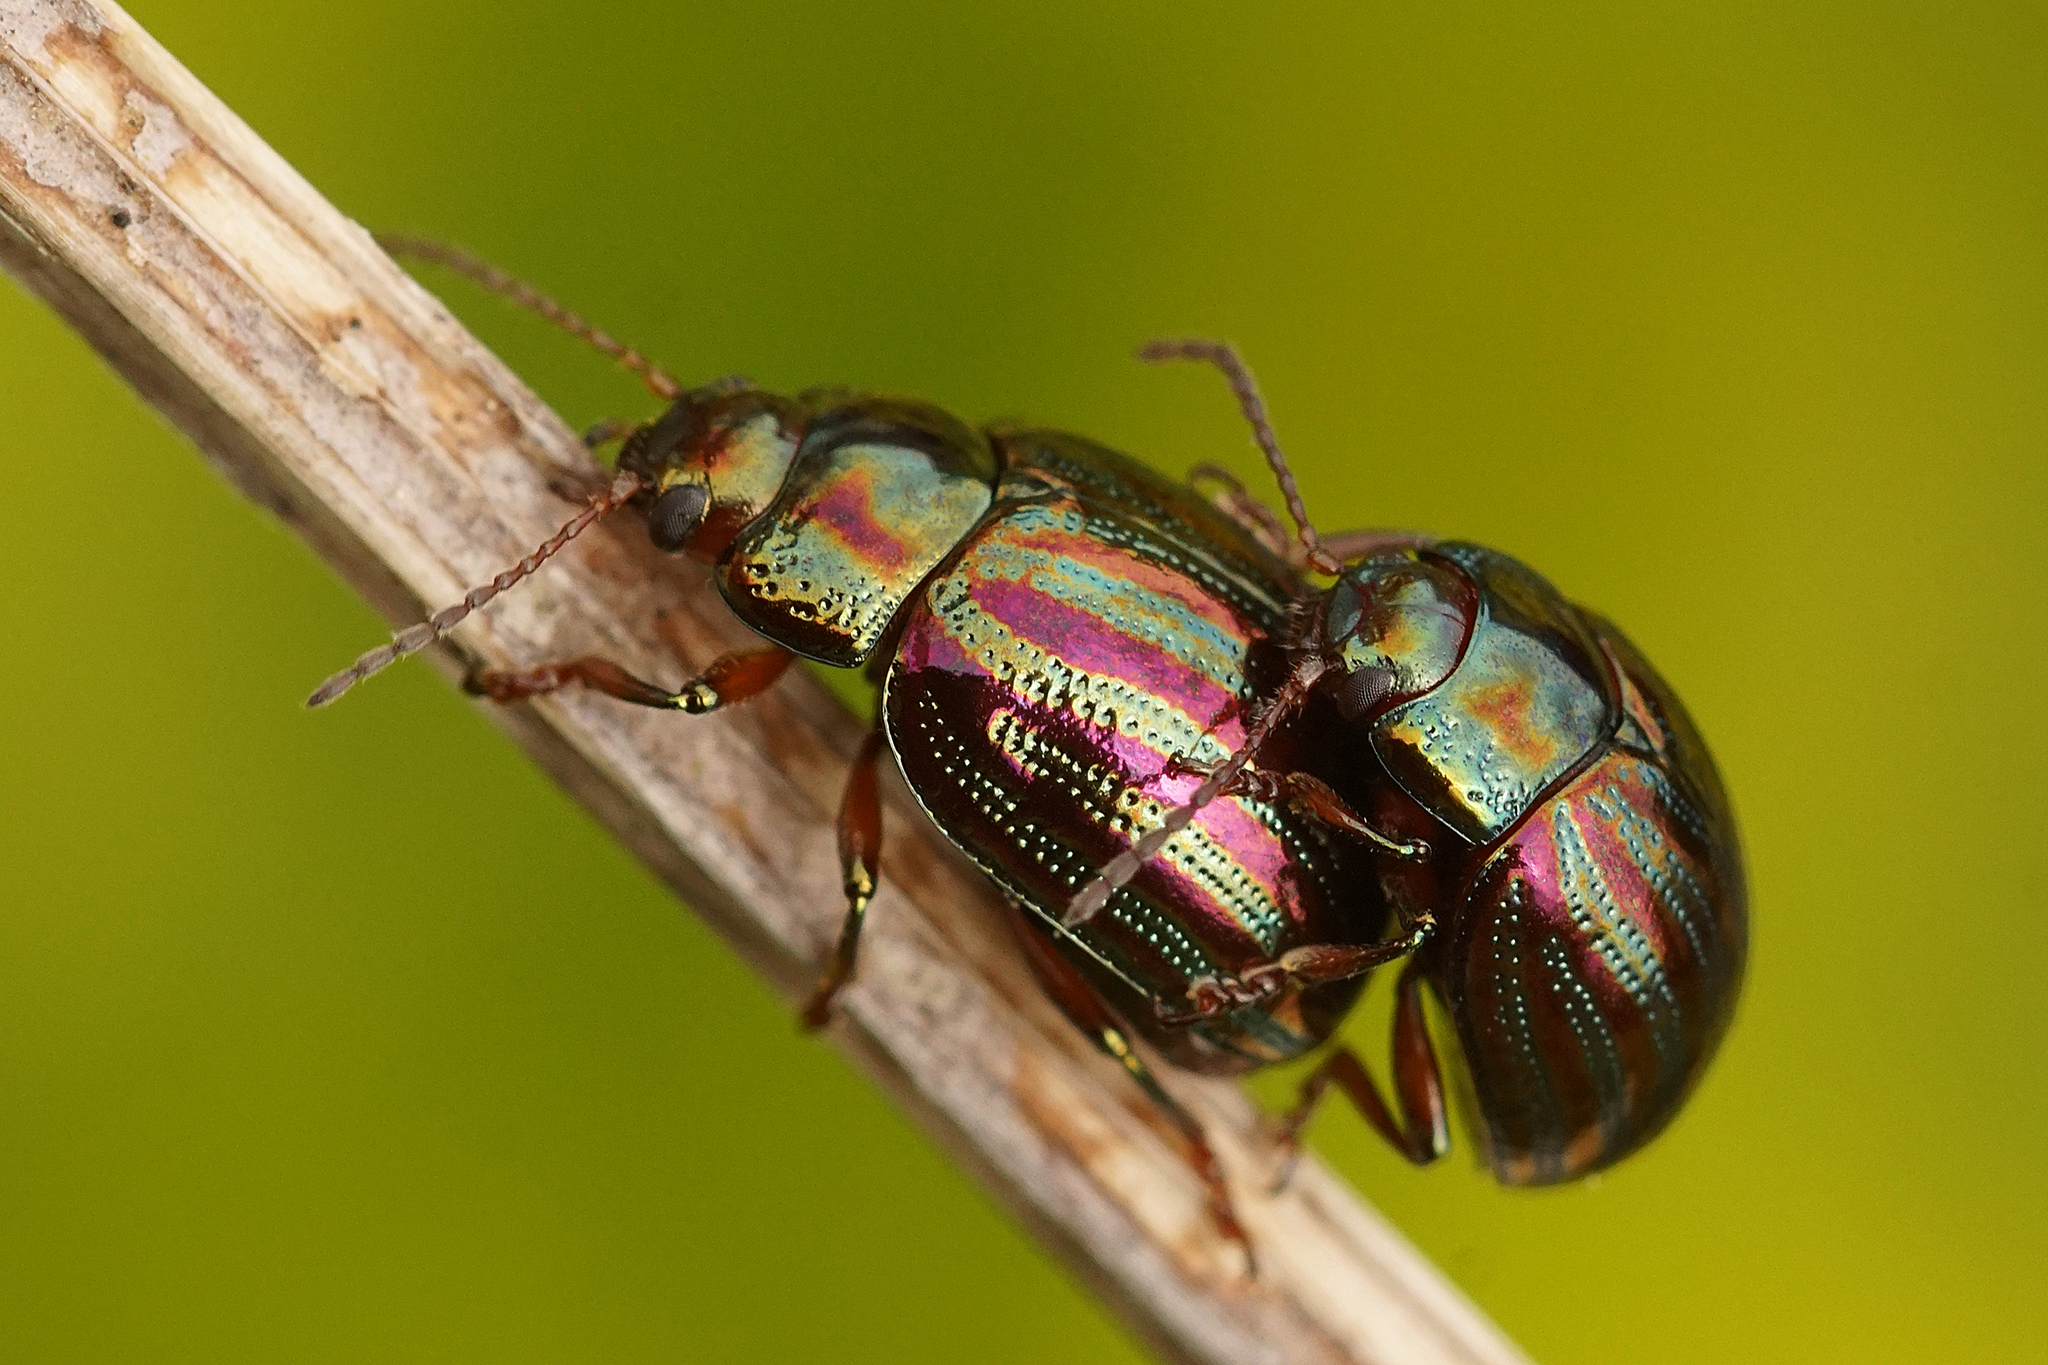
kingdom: Animalia
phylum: Arthropoda
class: Insecta
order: Coleoptera
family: Chrysomelidae
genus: Chrysolina
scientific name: Chrysolina americana
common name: Rosemary beetle
